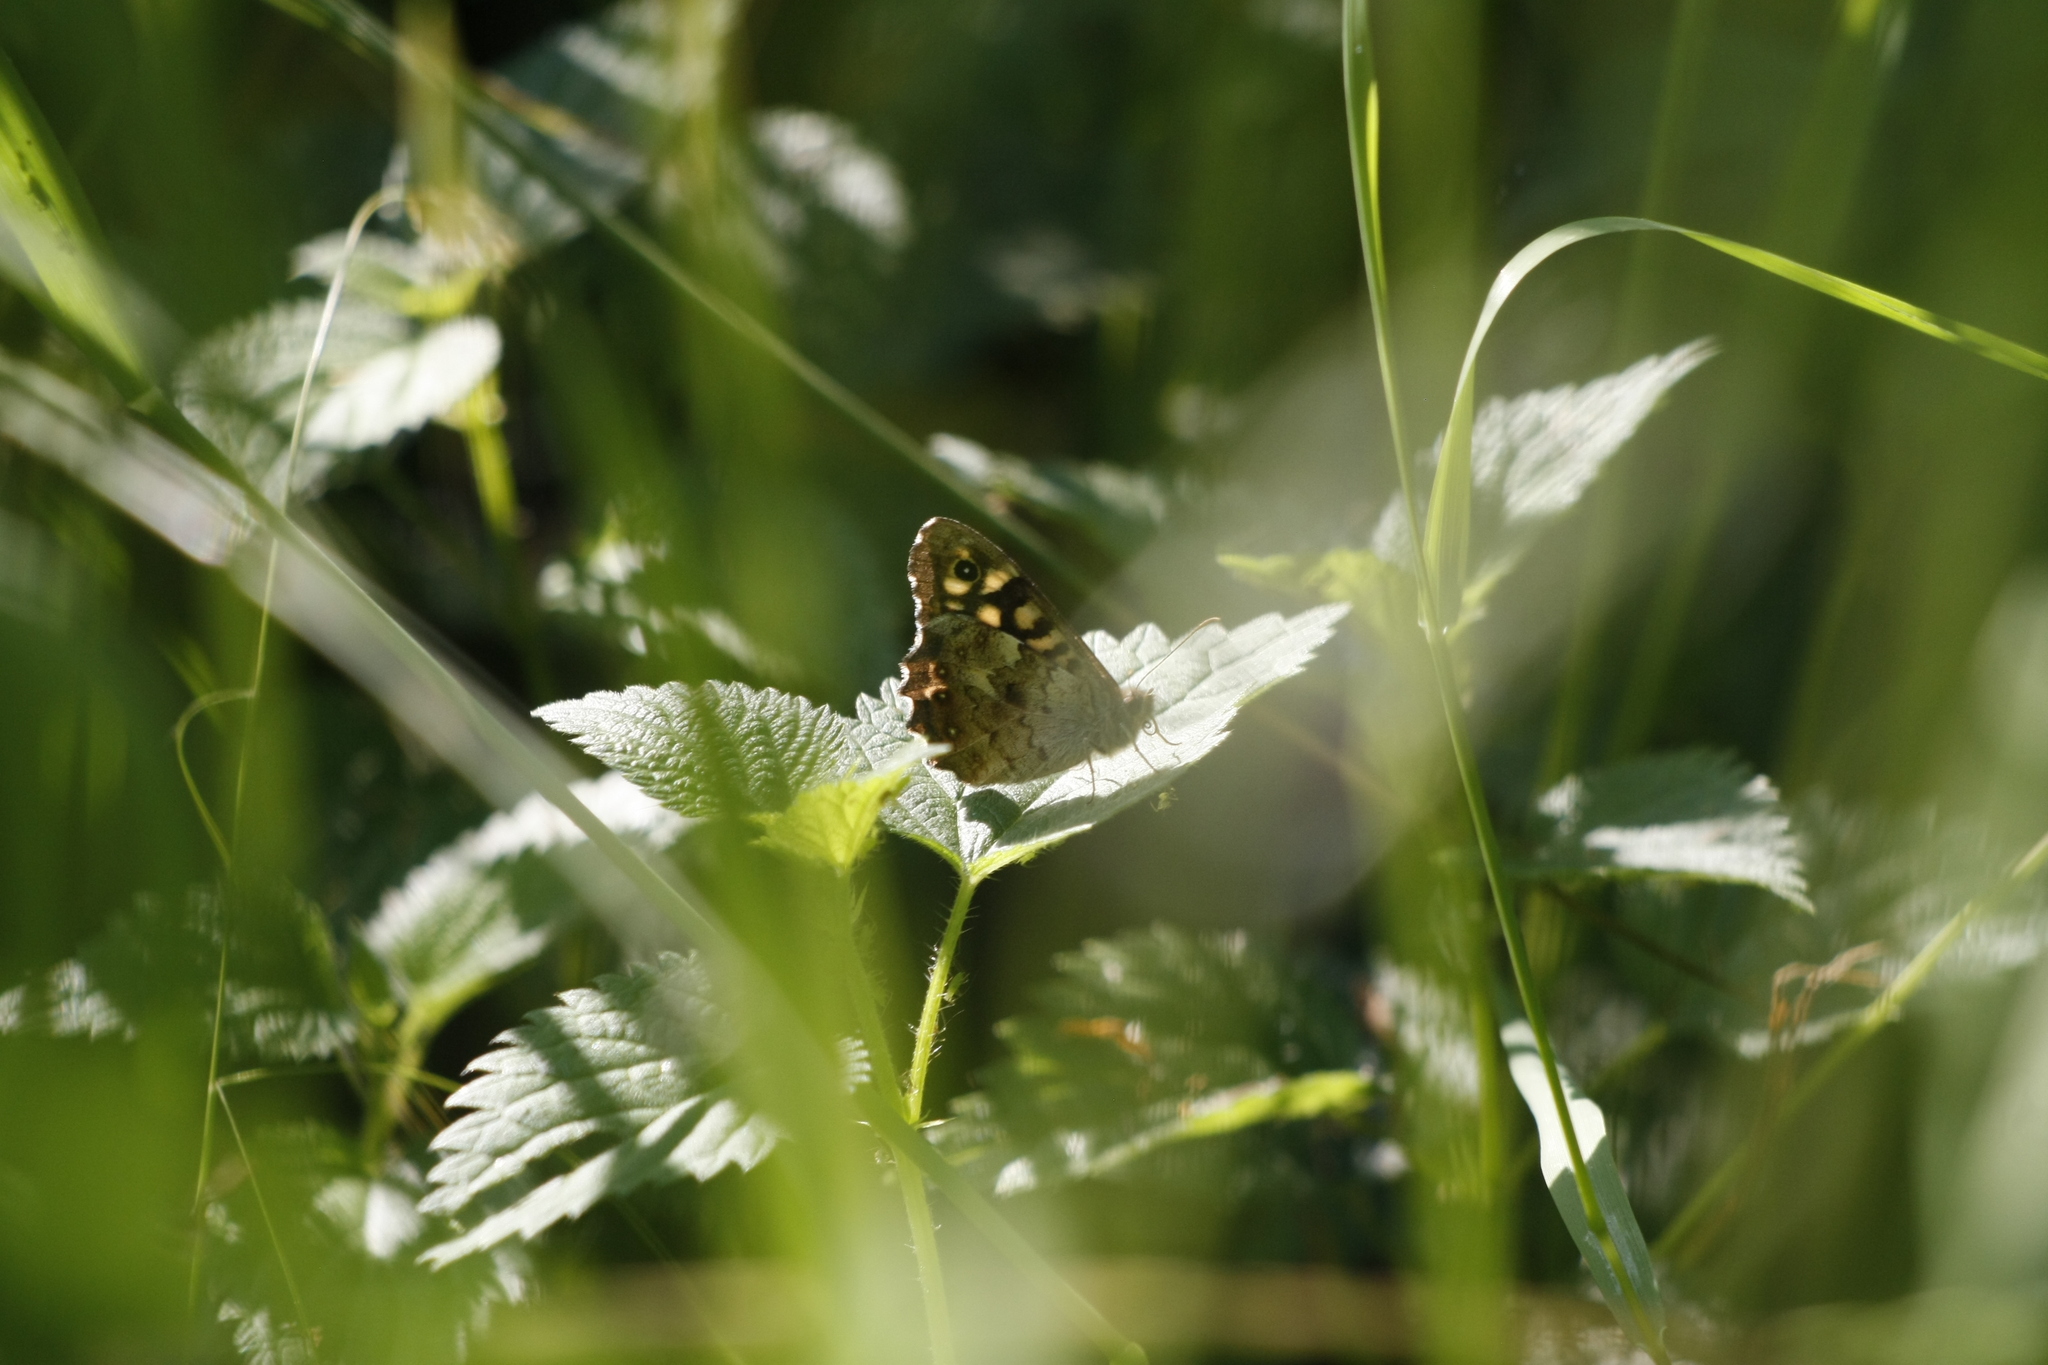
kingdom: Animalia
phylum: Arthropoda
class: Insecta
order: Lepidoptera
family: Nymphalidae
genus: Pararge
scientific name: Pararge aegeria
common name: Speckled wood
